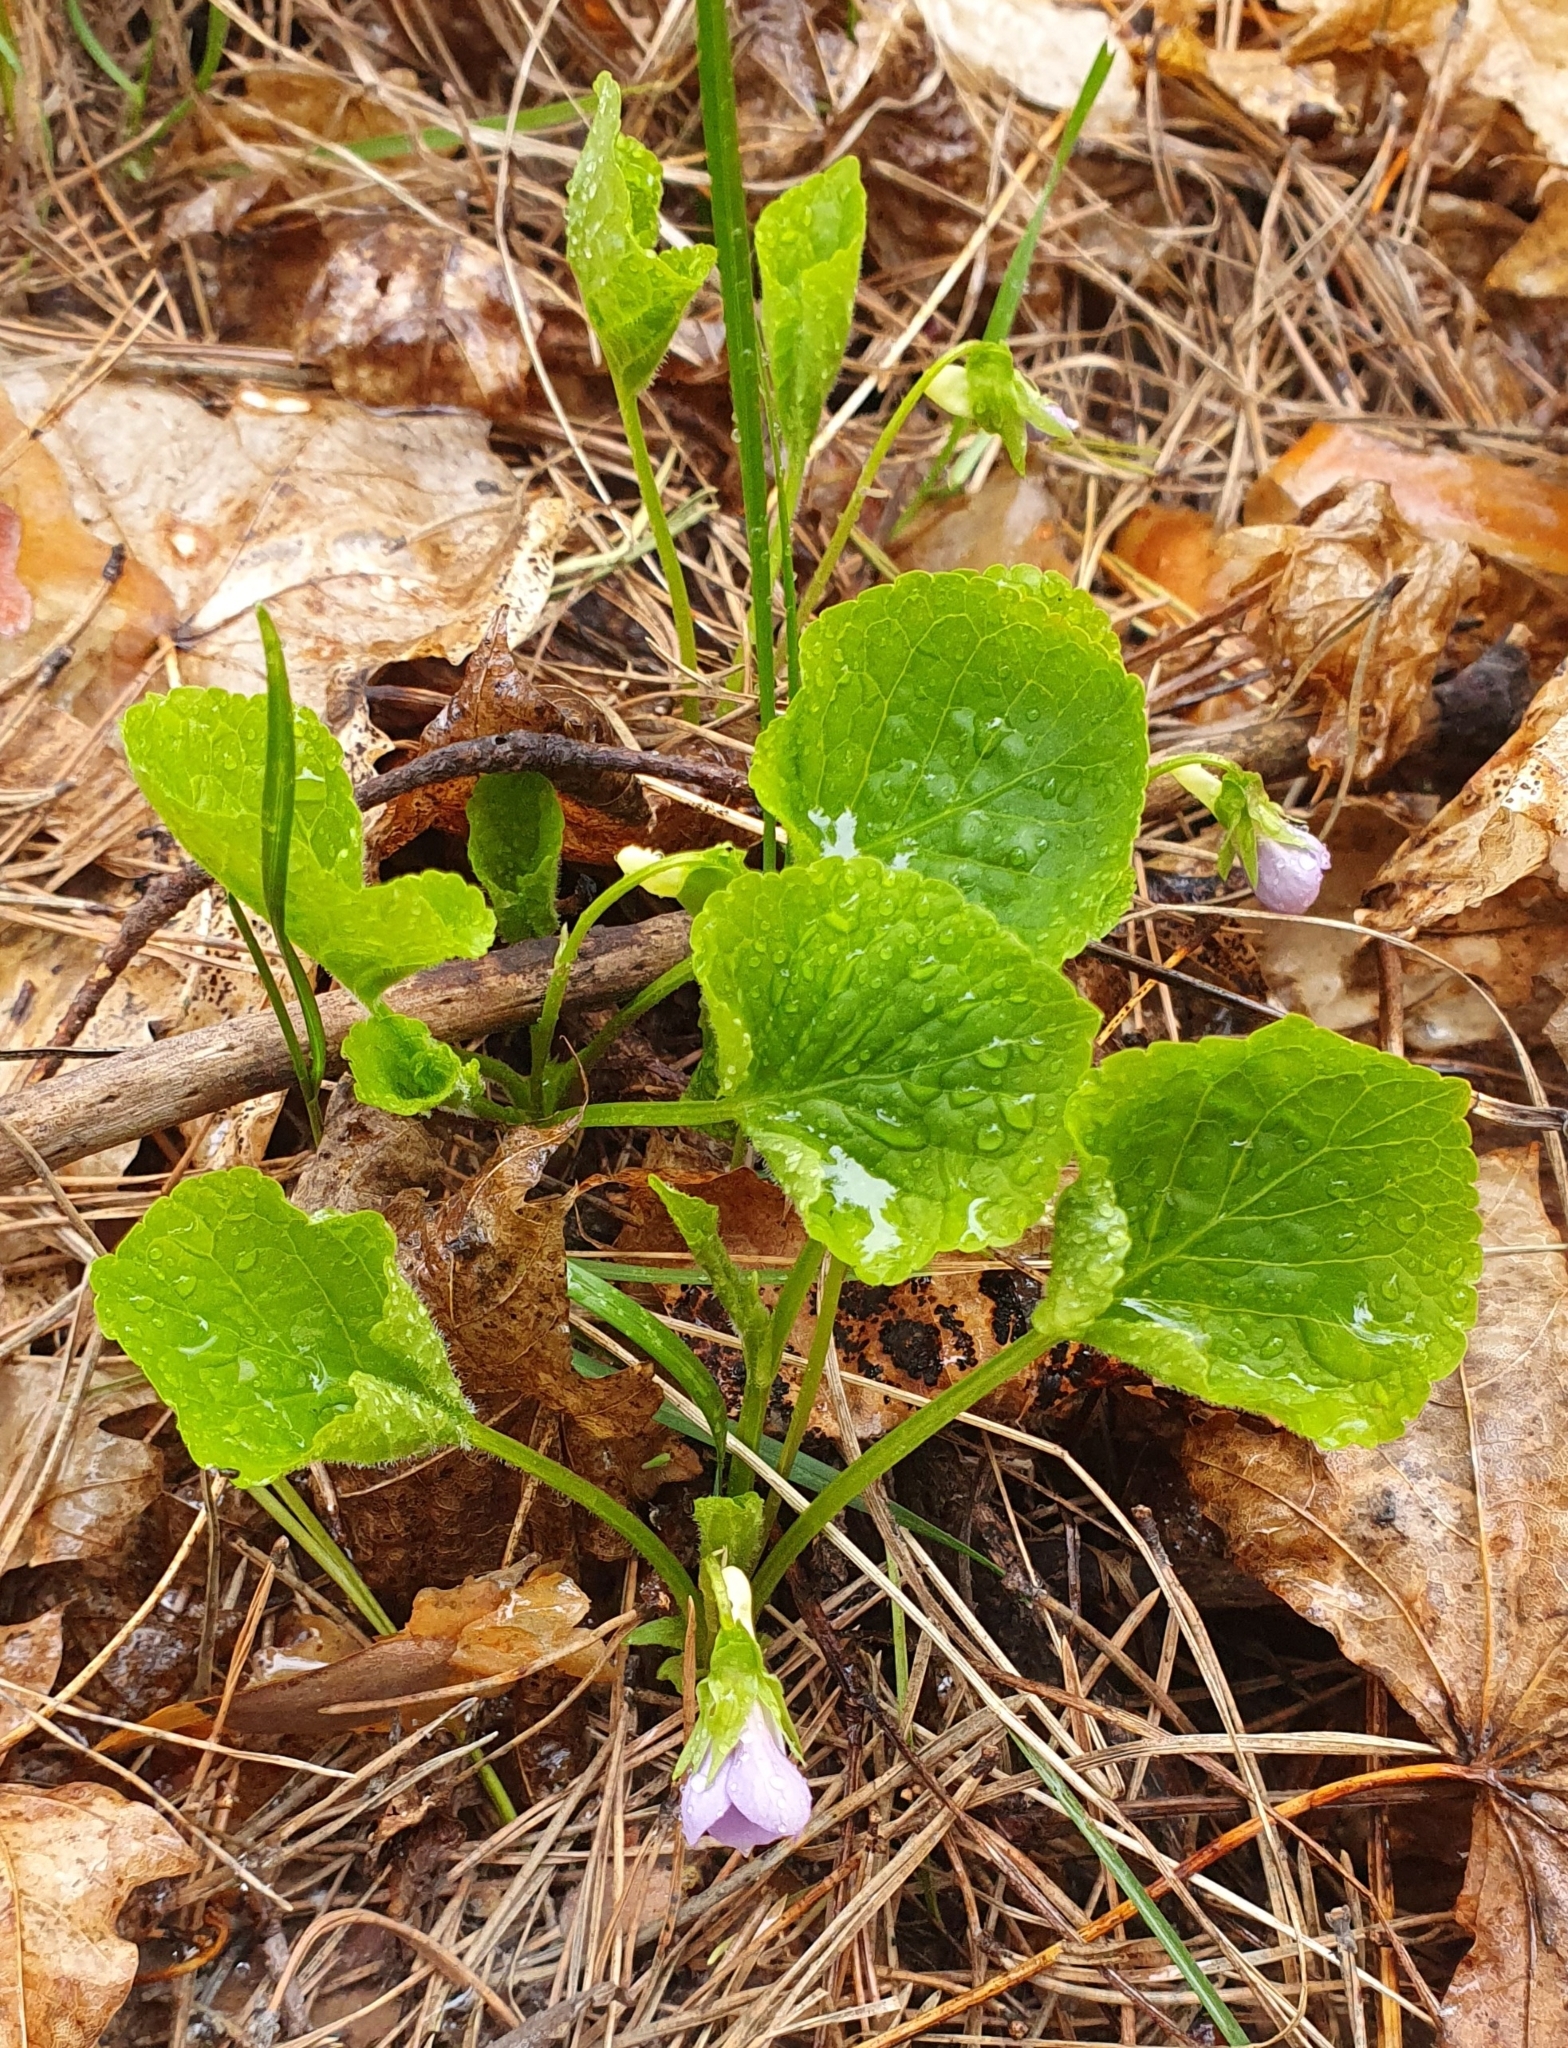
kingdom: Plantae
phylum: Tracheophyta
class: Magnoliopsida
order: Malpighiales
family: Violaceae
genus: Viola
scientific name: Viola mirabilis
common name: Wonder violet
